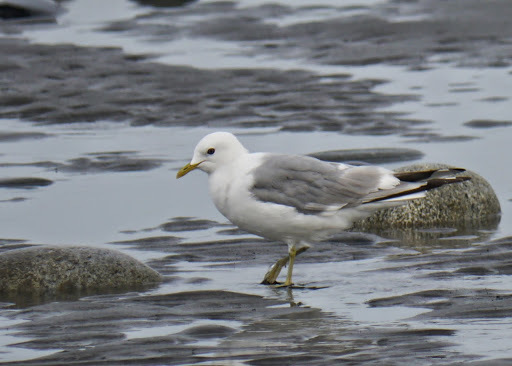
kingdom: Animalia
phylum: Chordata
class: Aves
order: Charadriiformes
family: Laridae
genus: Larus
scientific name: Larus brachyrhynchus
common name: Short-billed gull
